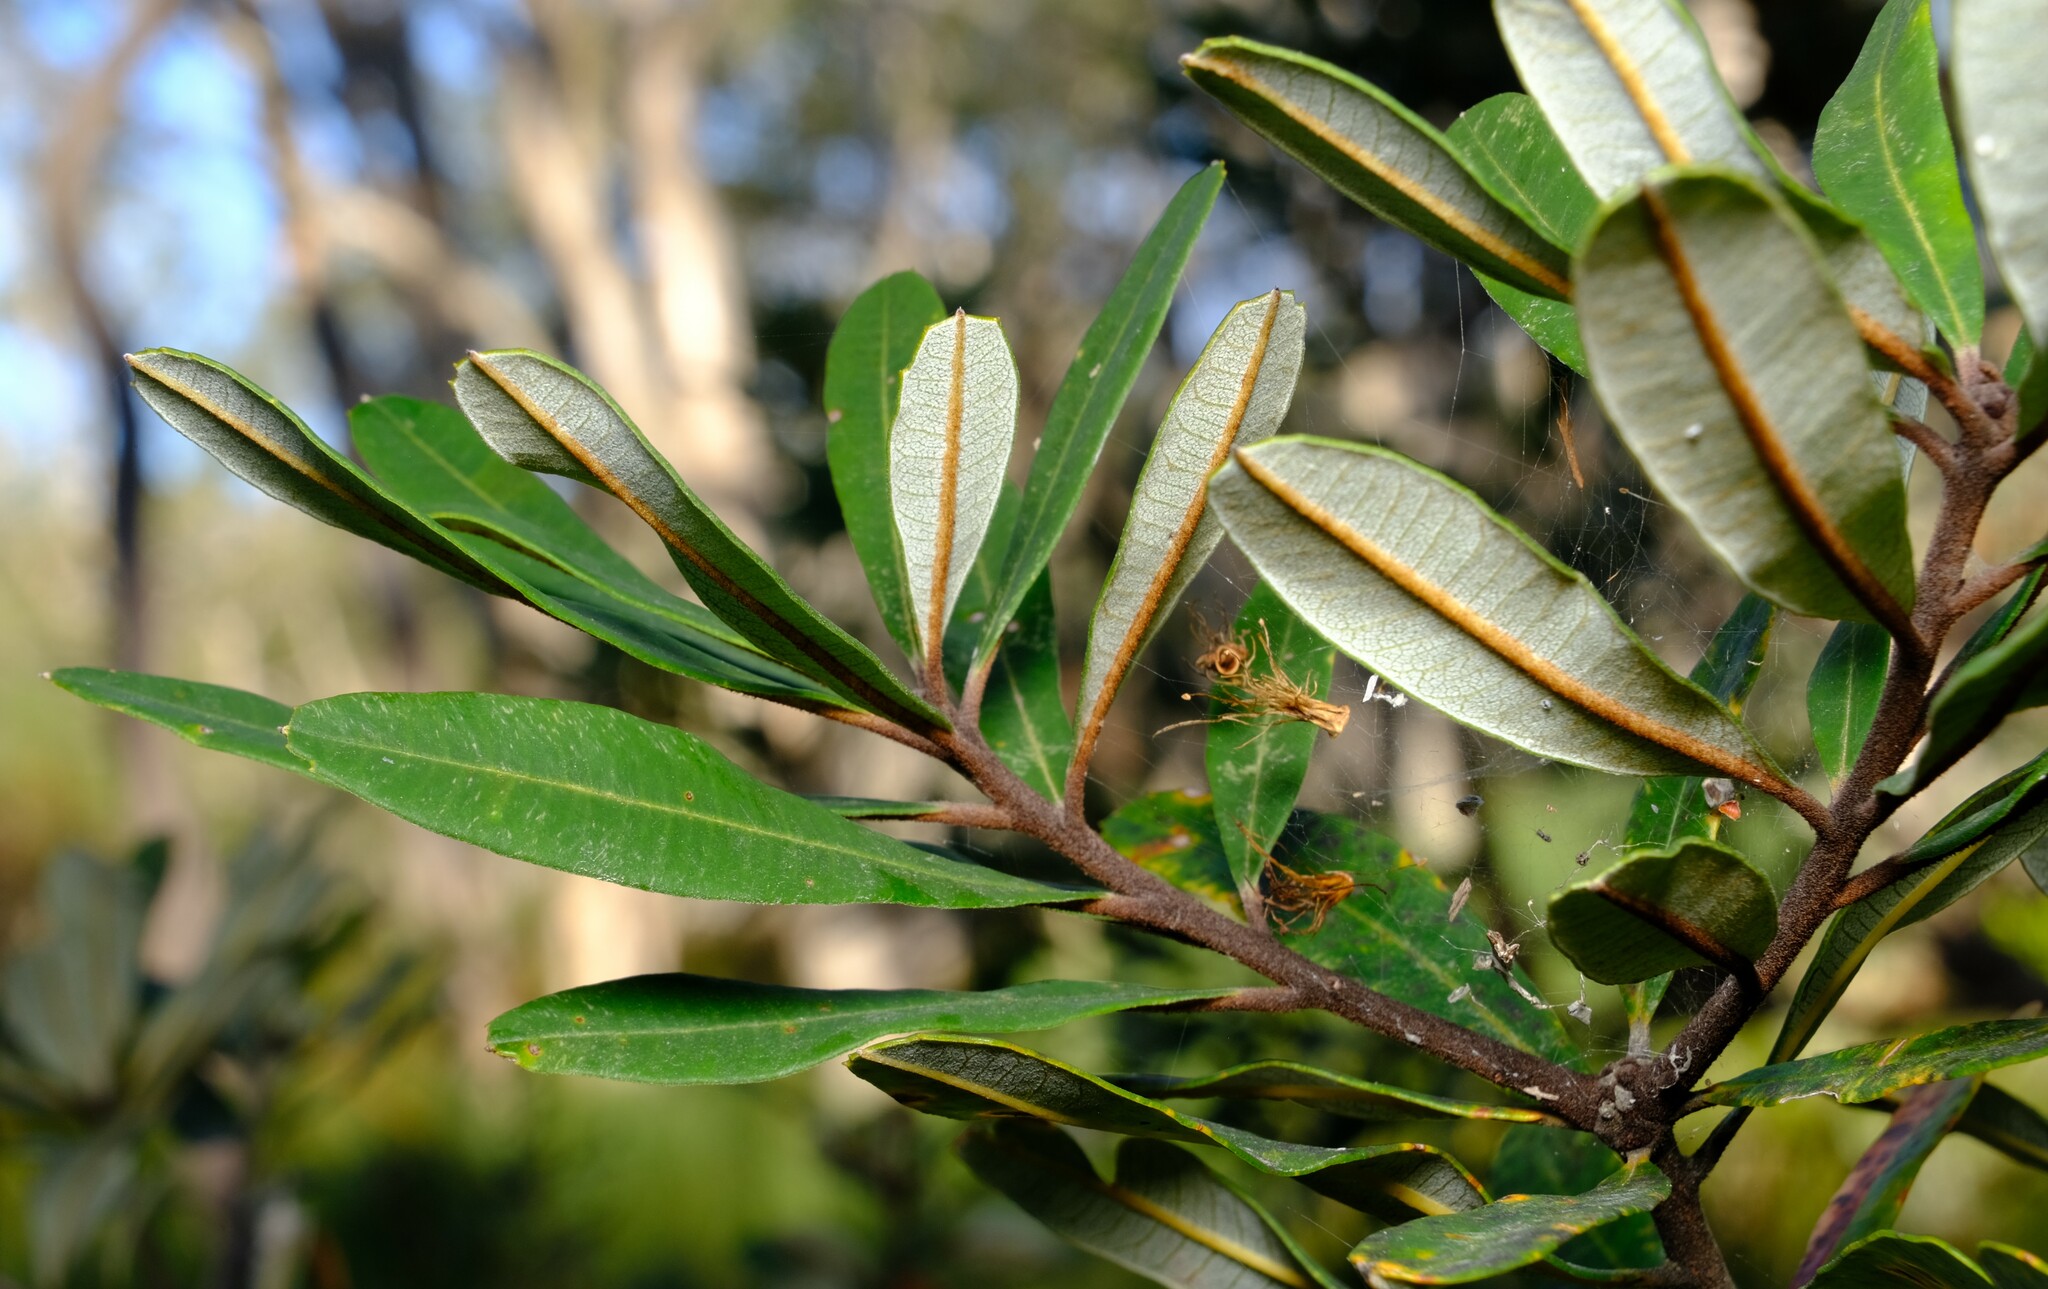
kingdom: Plantae
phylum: Tracheophyta
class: Magnoliopsida
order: Proteales
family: Proteaceae
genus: Banksia
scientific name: Banksia oblongifolia
